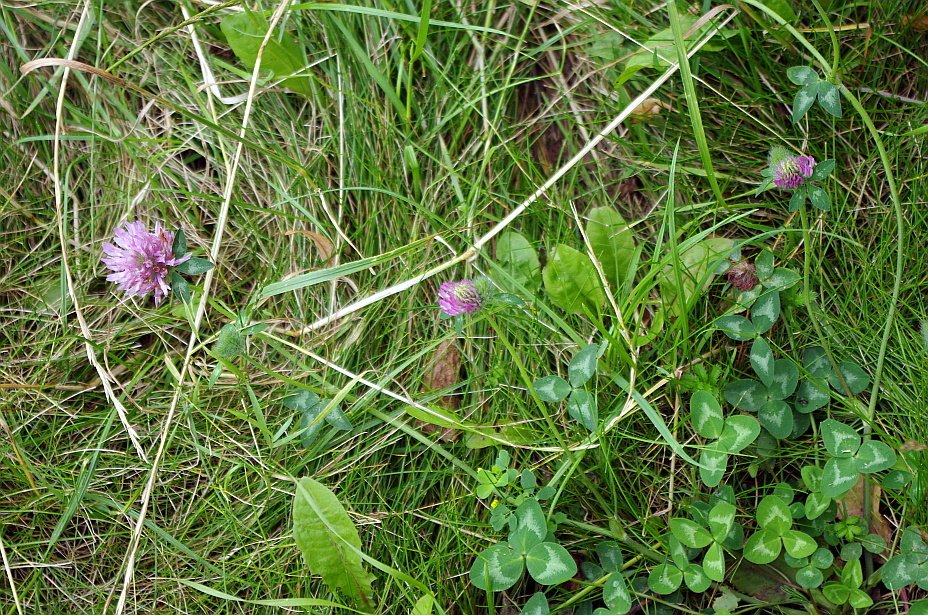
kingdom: Plantae
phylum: Tracheophyta
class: Magnoliopsida
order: Fabales
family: Fabaceae
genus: Trifolium
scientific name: Trifolium pratense
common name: Red clover
